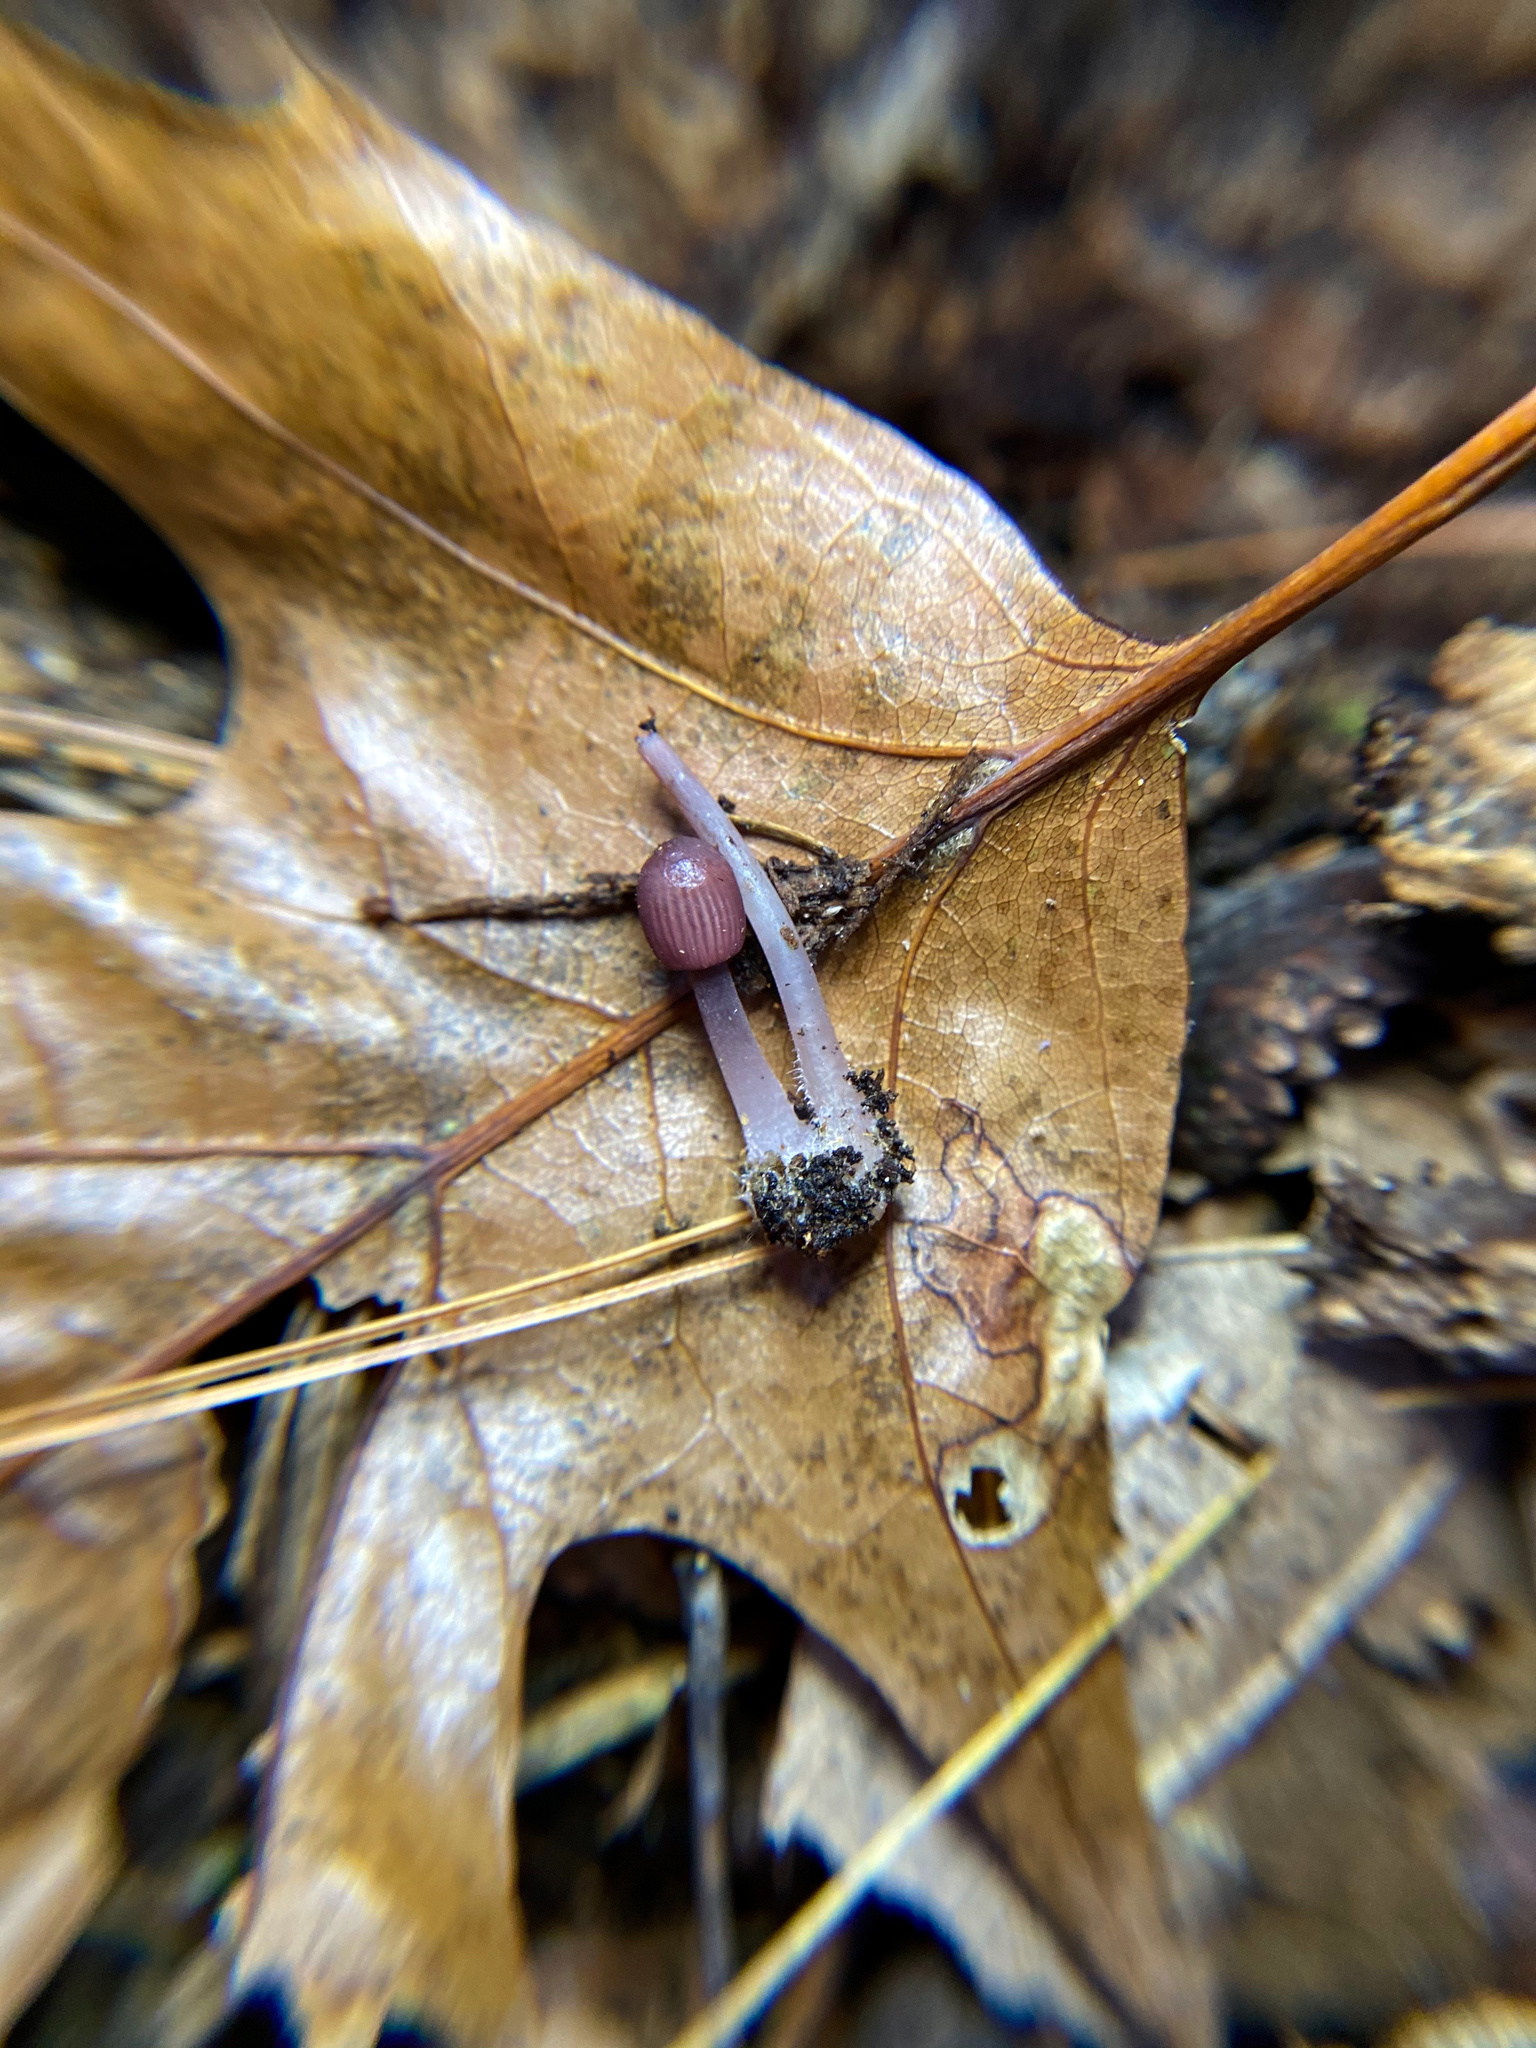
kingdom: Fungi
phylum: Basidiomycota
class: Agaricomycetes
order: Agaricales
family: Mycenaceae
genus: Mycena
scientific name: Mycena pura
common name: Lilac bonnet
